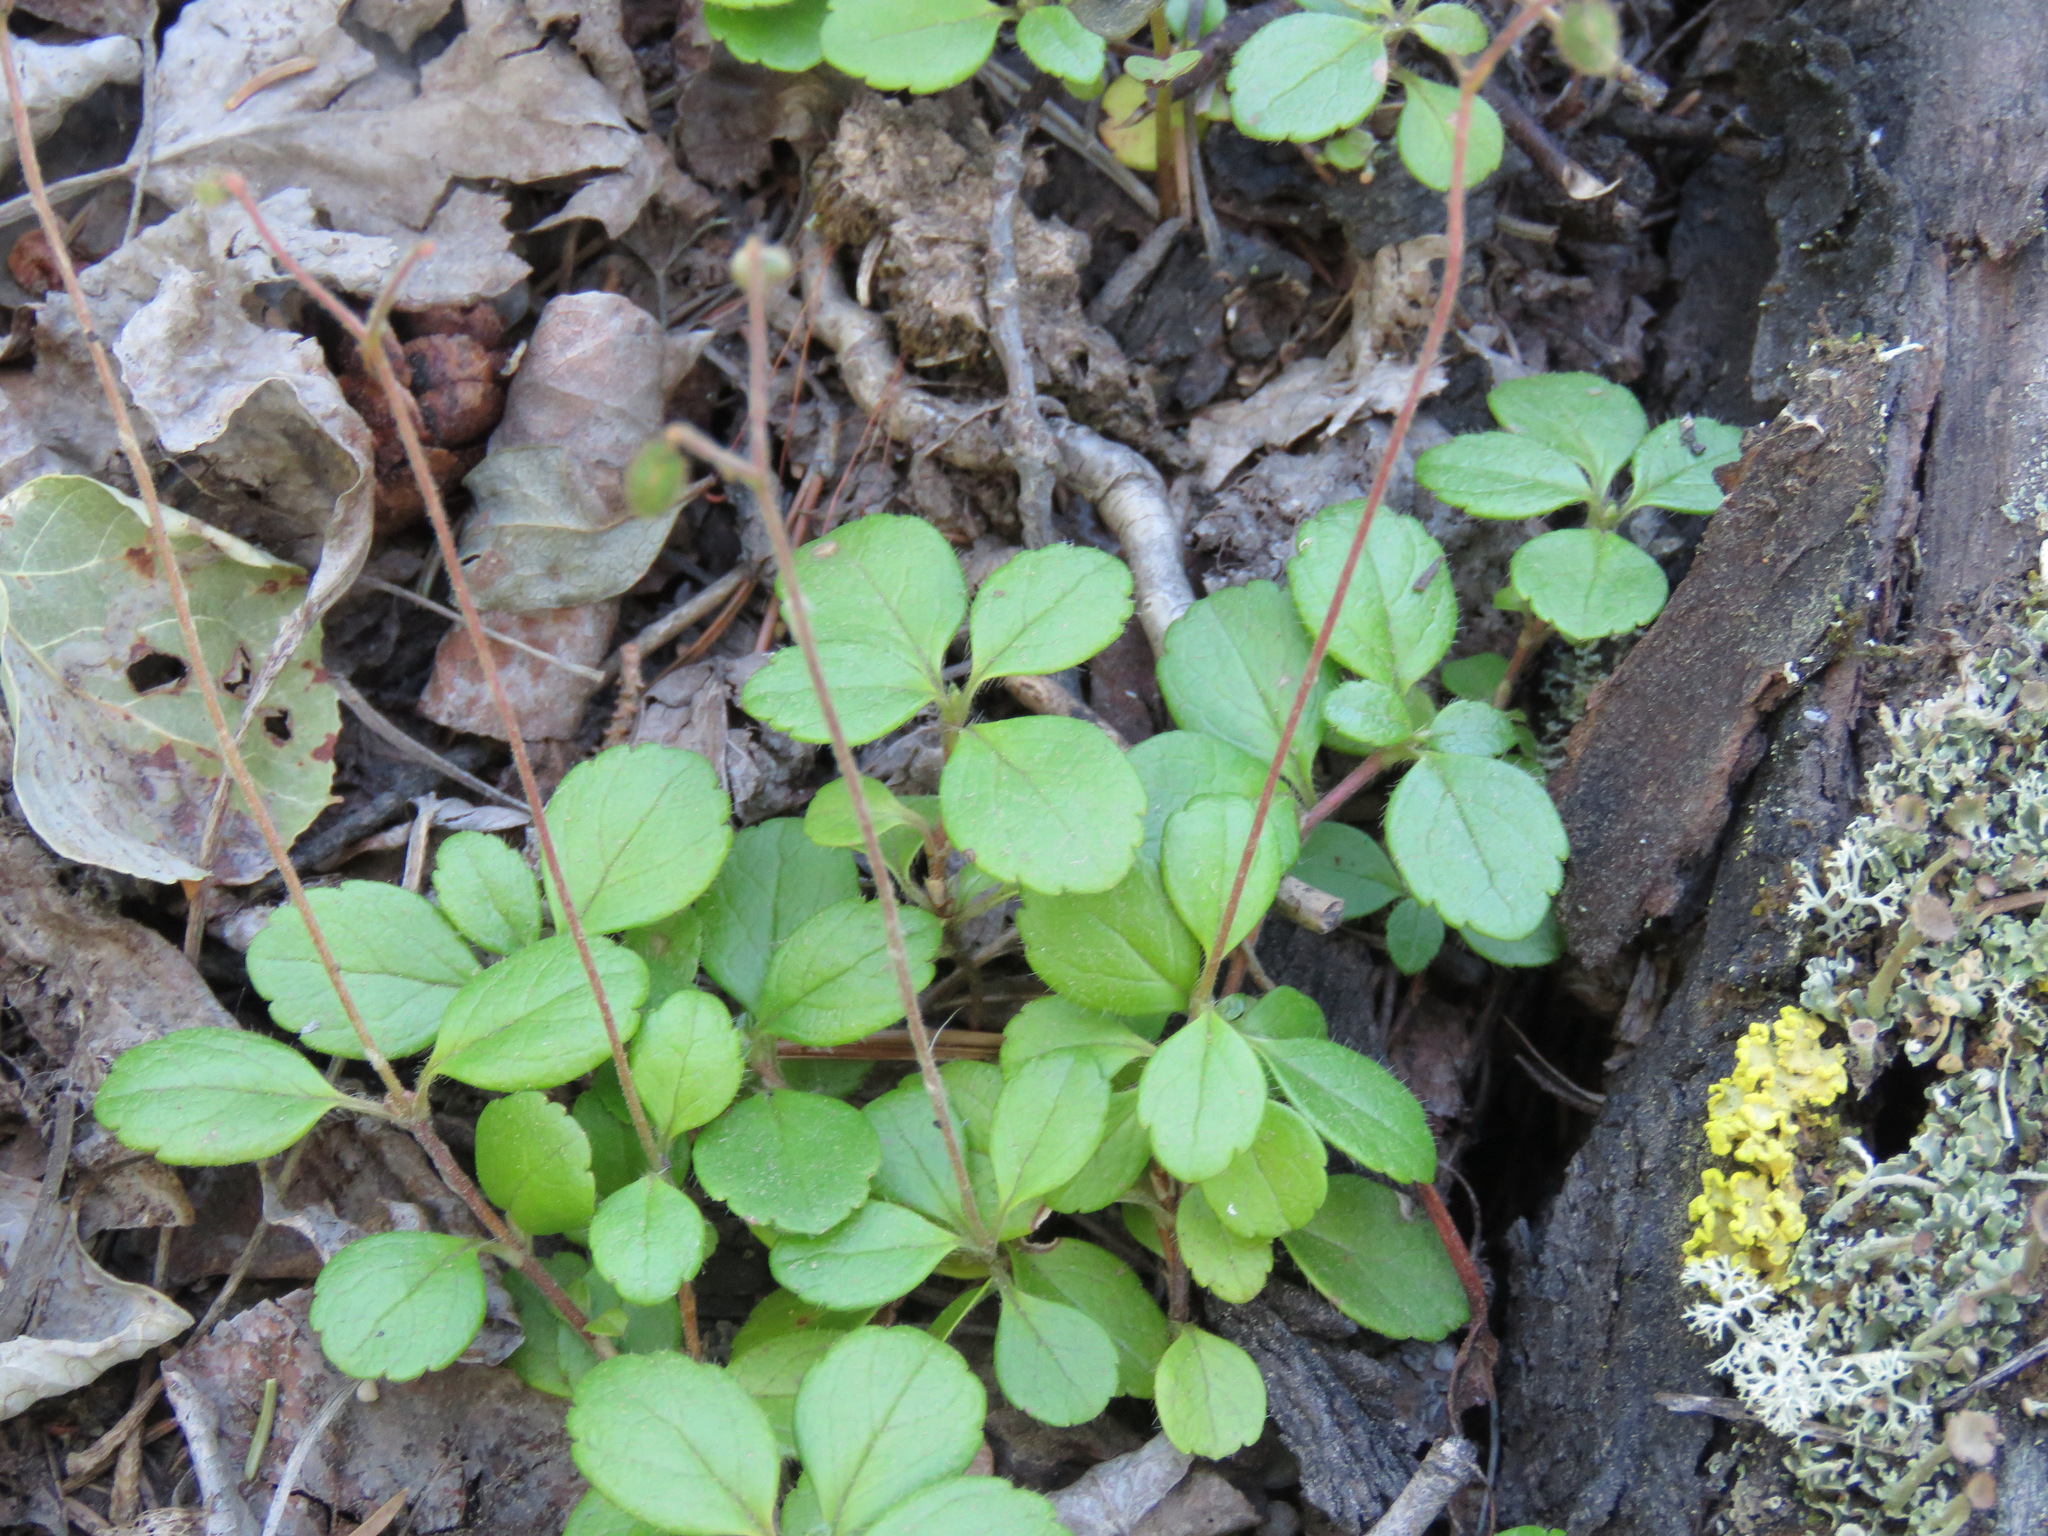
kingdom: Plantae
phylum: Tracheophyta
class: Magnoliopsida
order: Dipsacales
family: Caprifoliaceae
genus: Linnaea
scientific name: Linnaea borealis
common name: Twinflower
